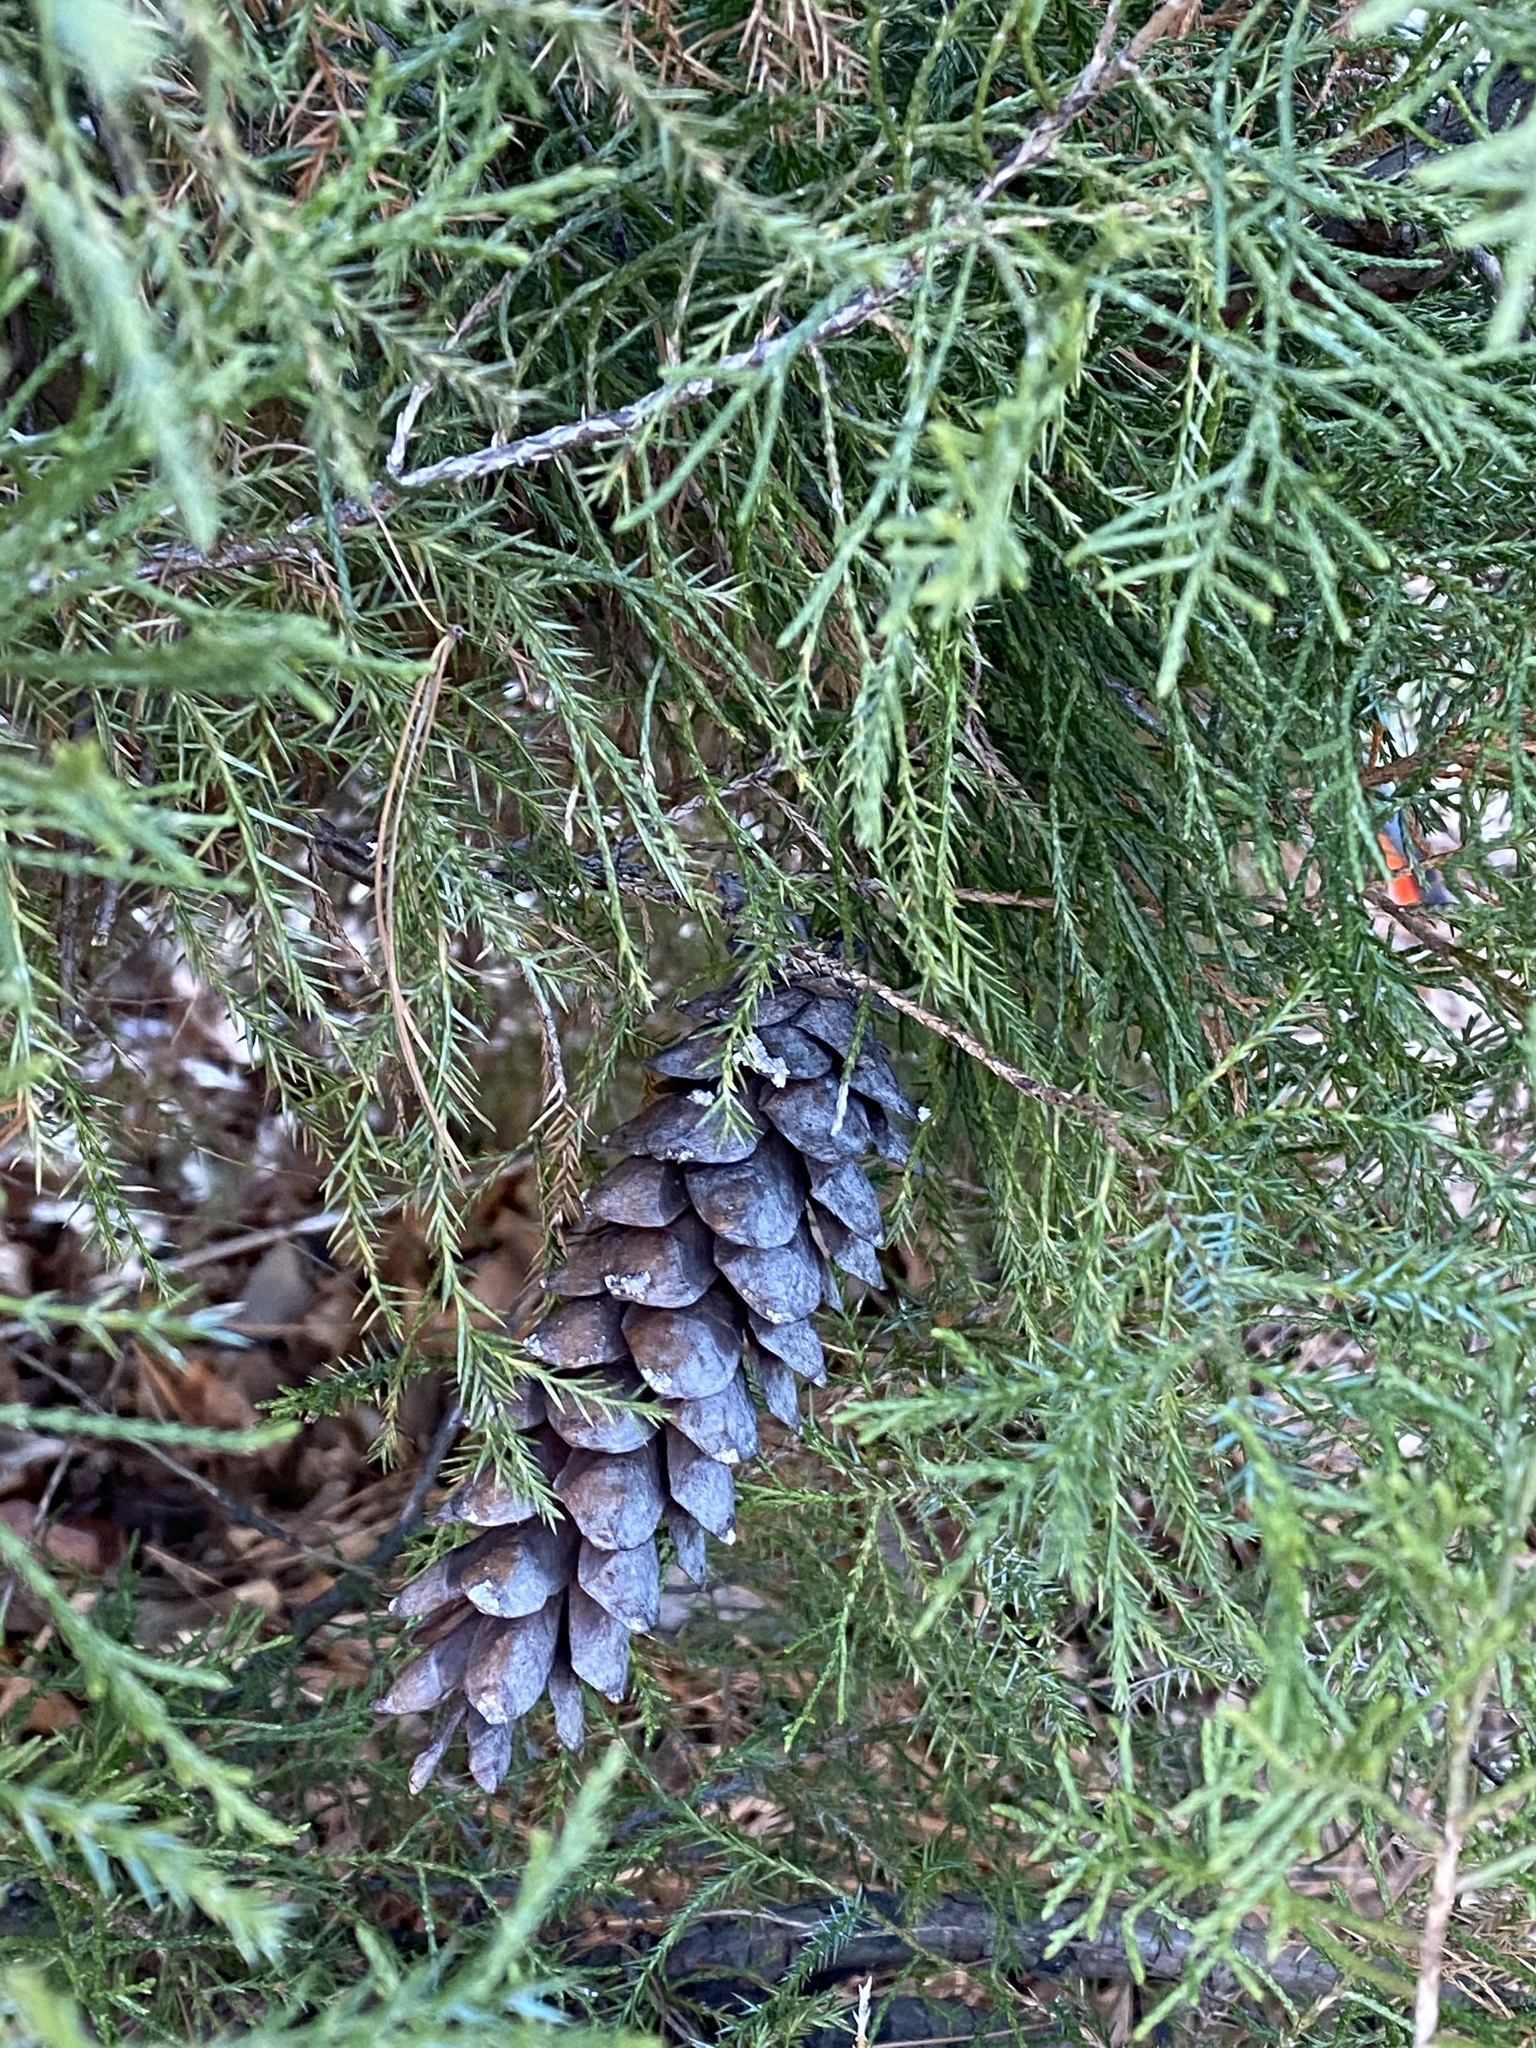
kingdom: Plantae
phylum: Tracheophyta
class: Pinopsida
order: Pinales
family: Pinaceae
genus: Pinus
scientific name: Pinus strobus
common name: Weymouth pine
